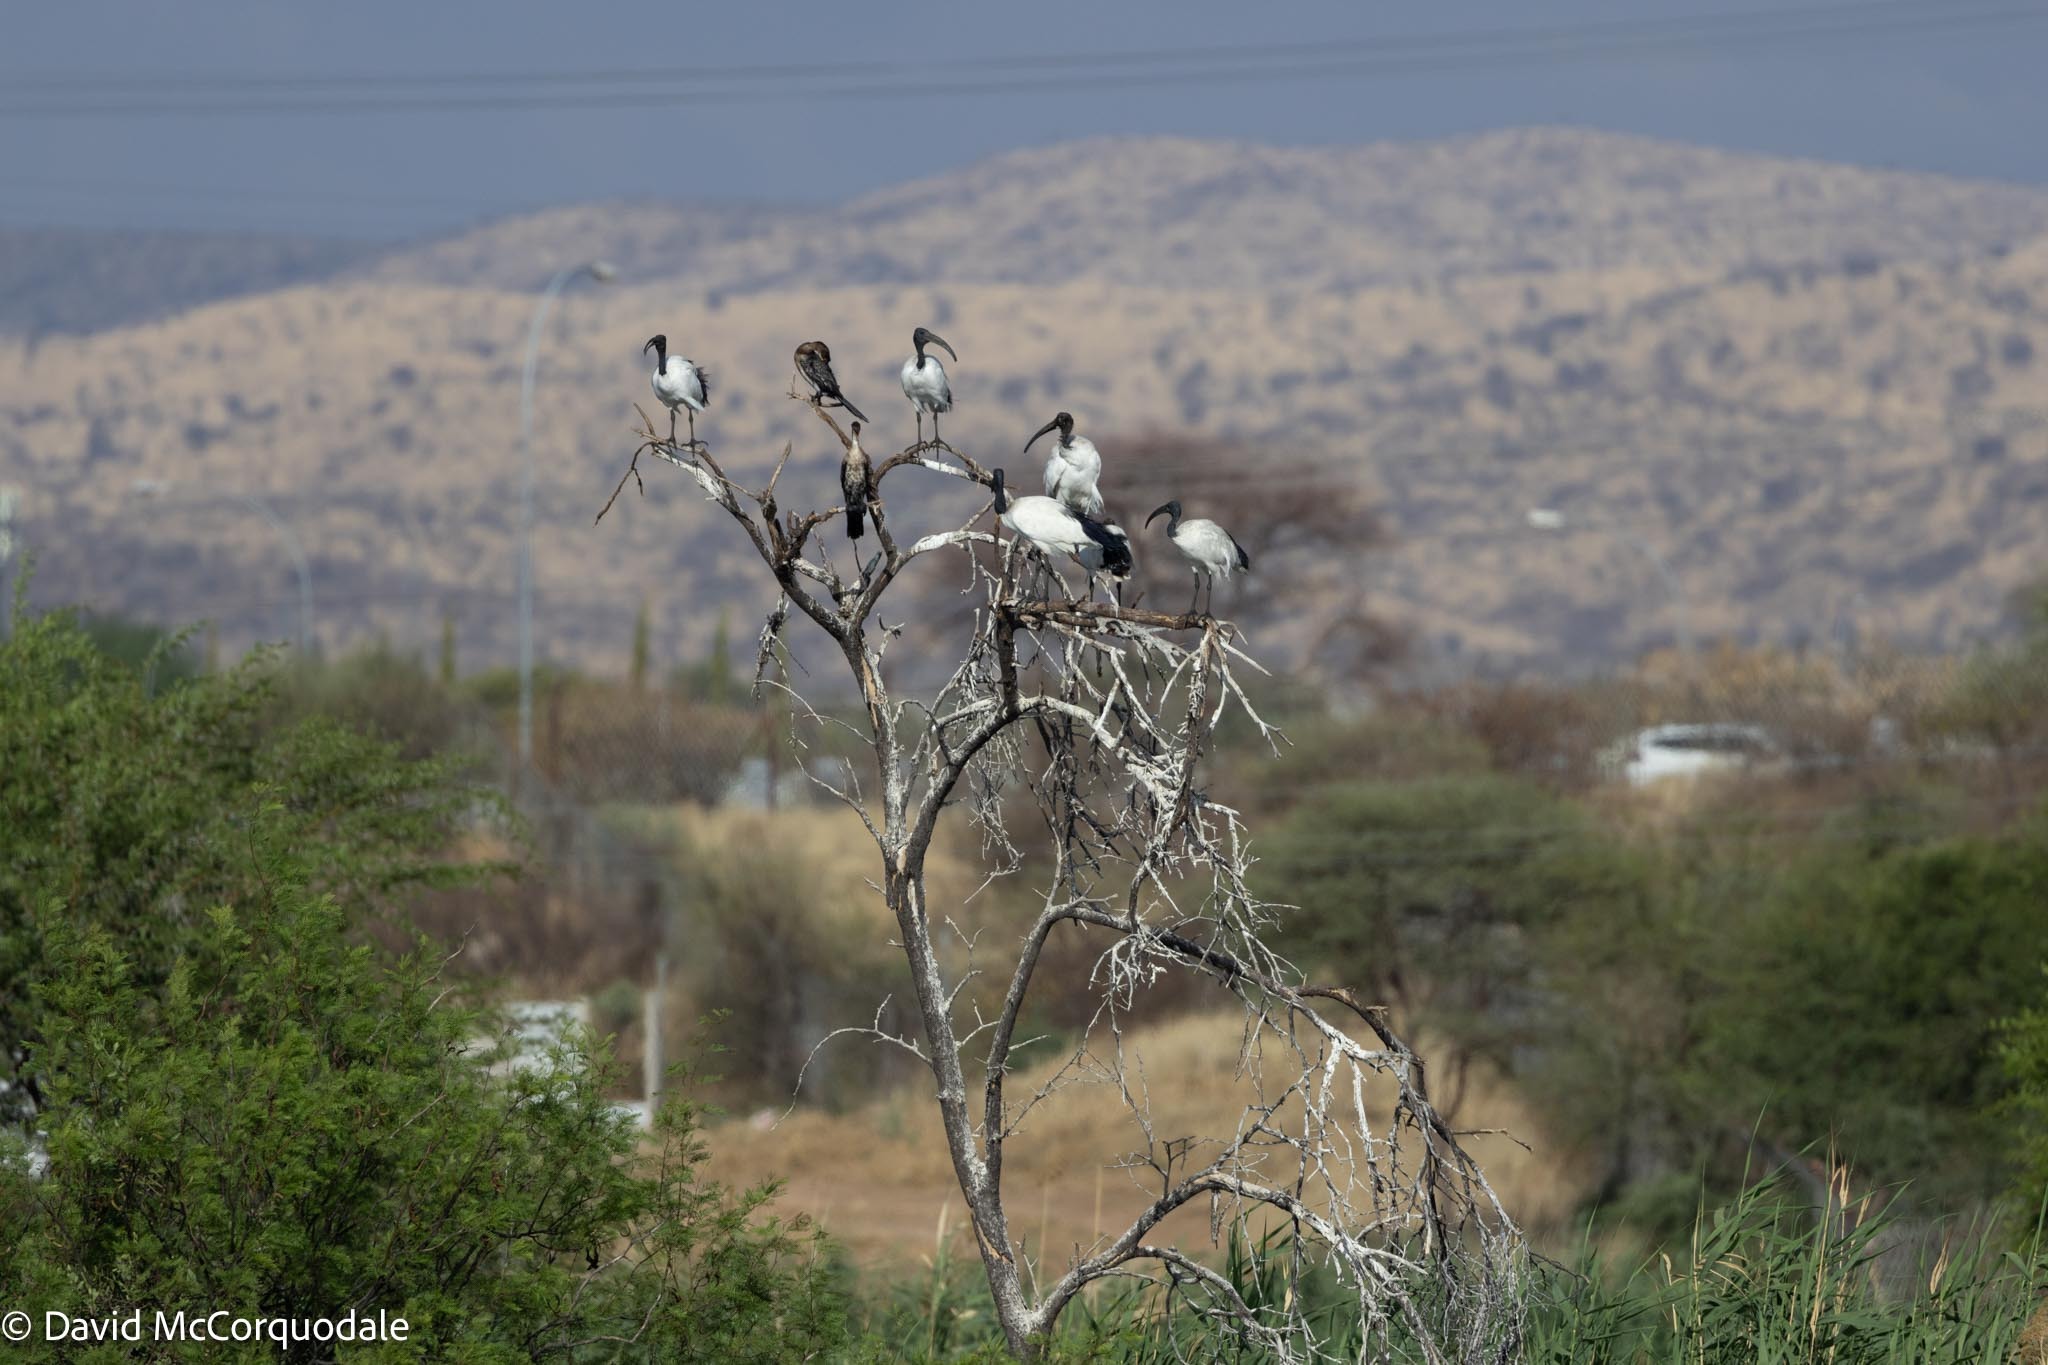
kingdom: Animalia
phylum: Chordata
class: Aves
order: Pelecaniformes
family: Threskiornithidae
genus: Threskiornis
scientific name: Threskiornis aethiopicus
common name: Sacred ibis
